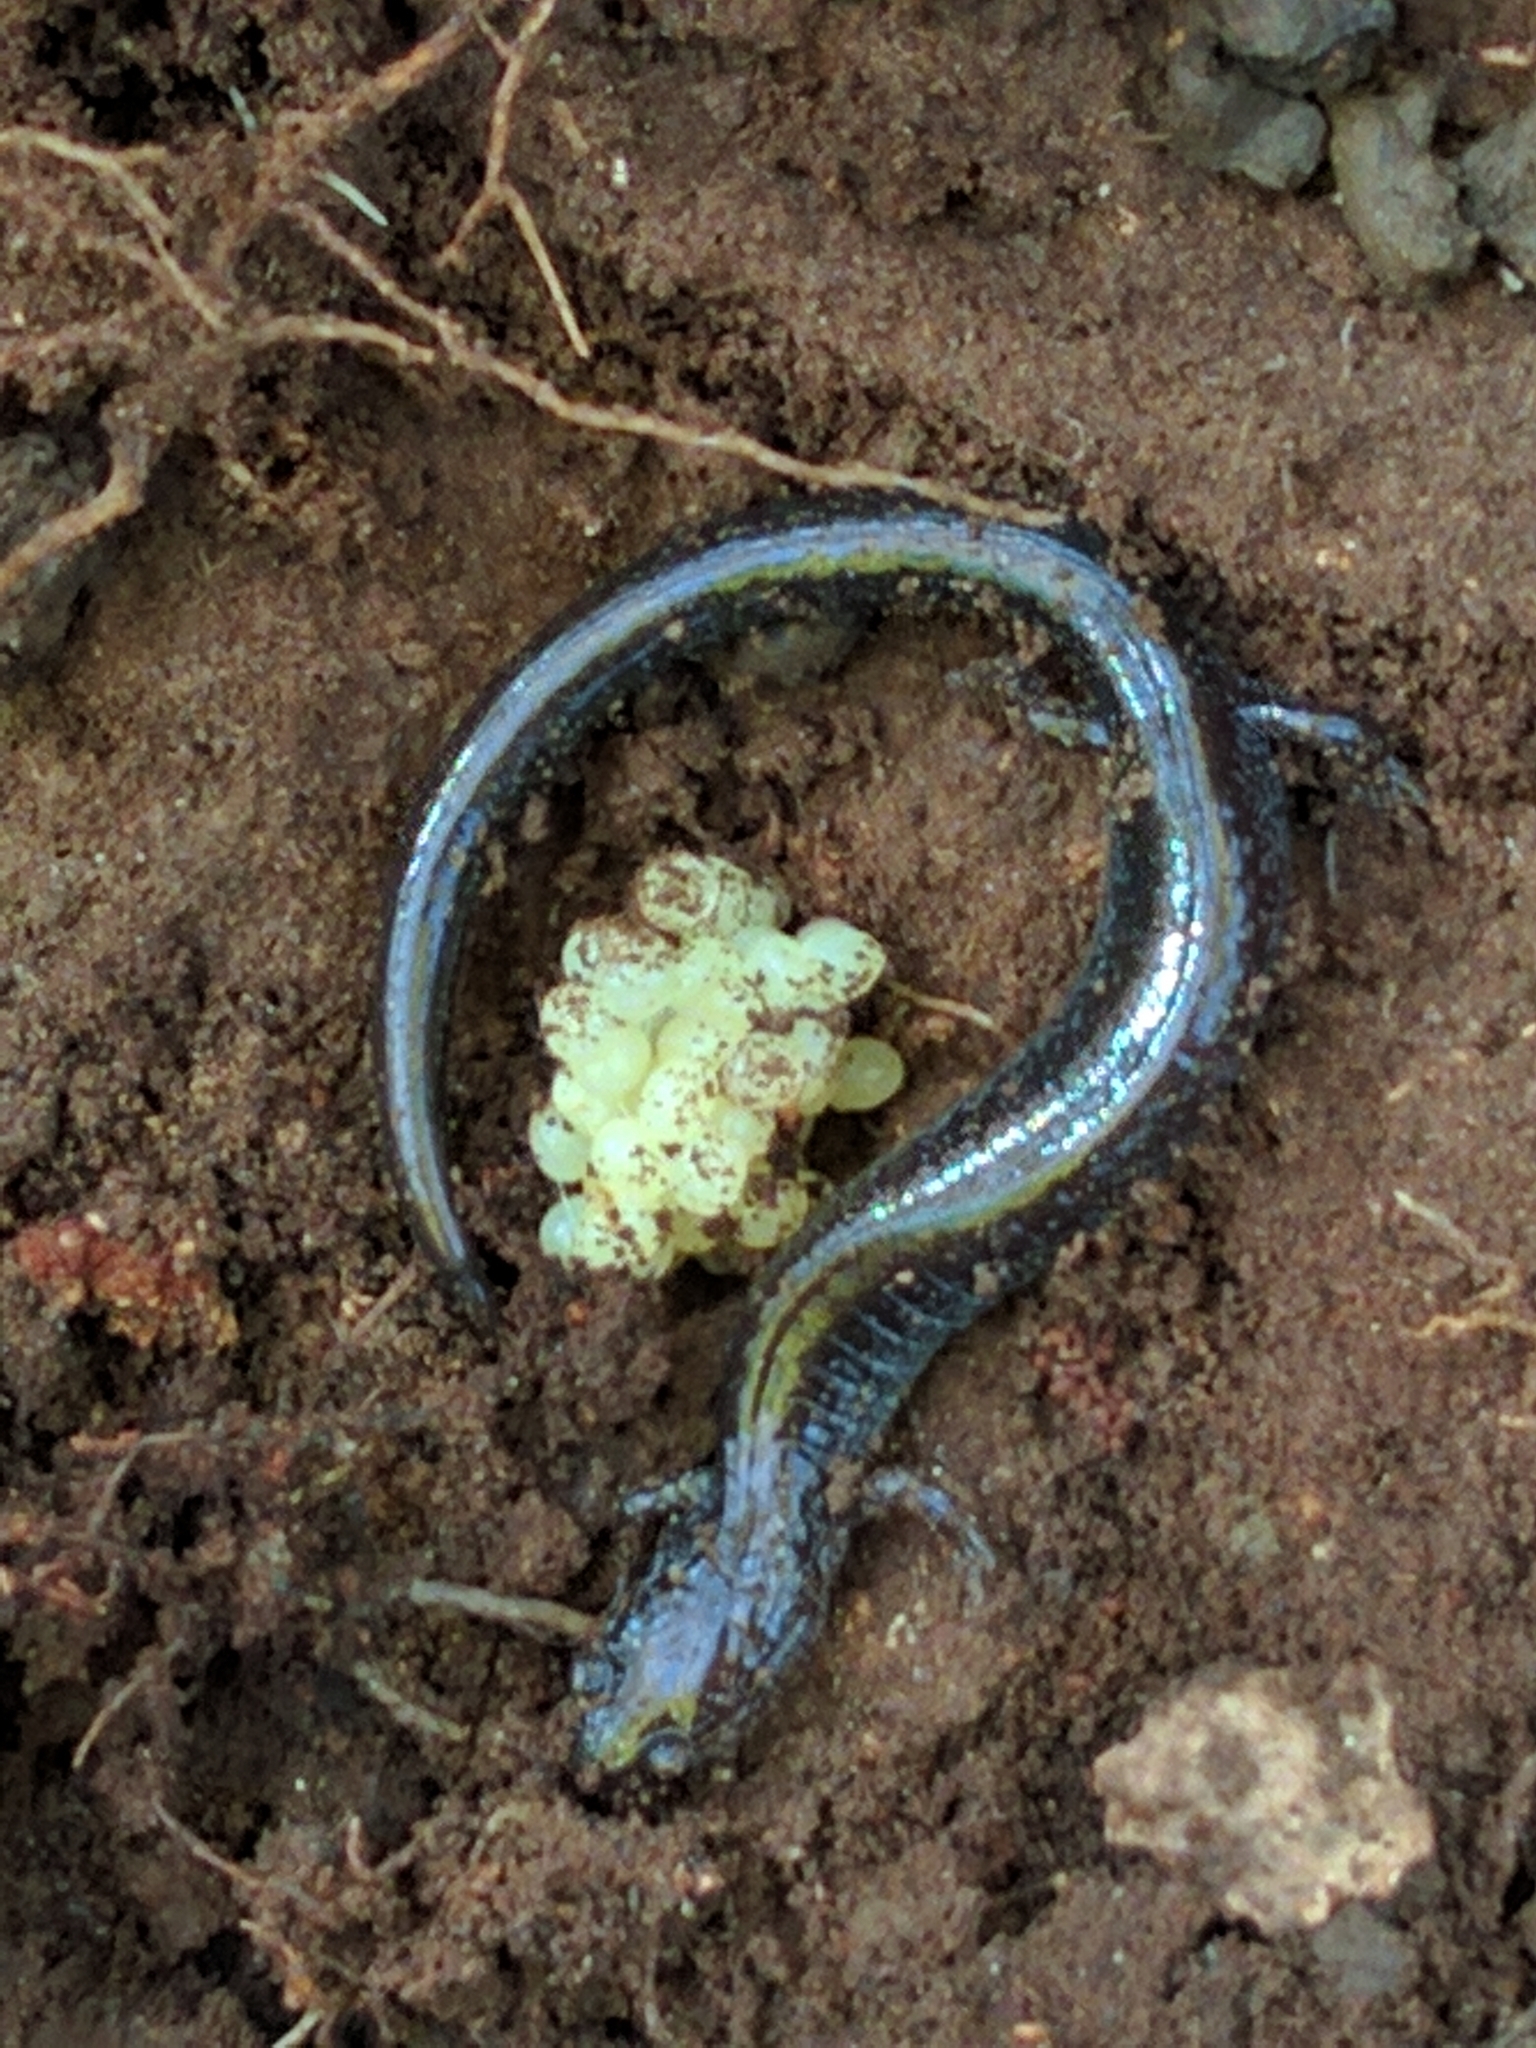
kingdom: Animalia
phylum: Chordata
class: Amphibia
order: Caudata
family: Plethodontidae
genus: Plethodon
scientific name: Plethodon cinereus
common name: Redback salamander
